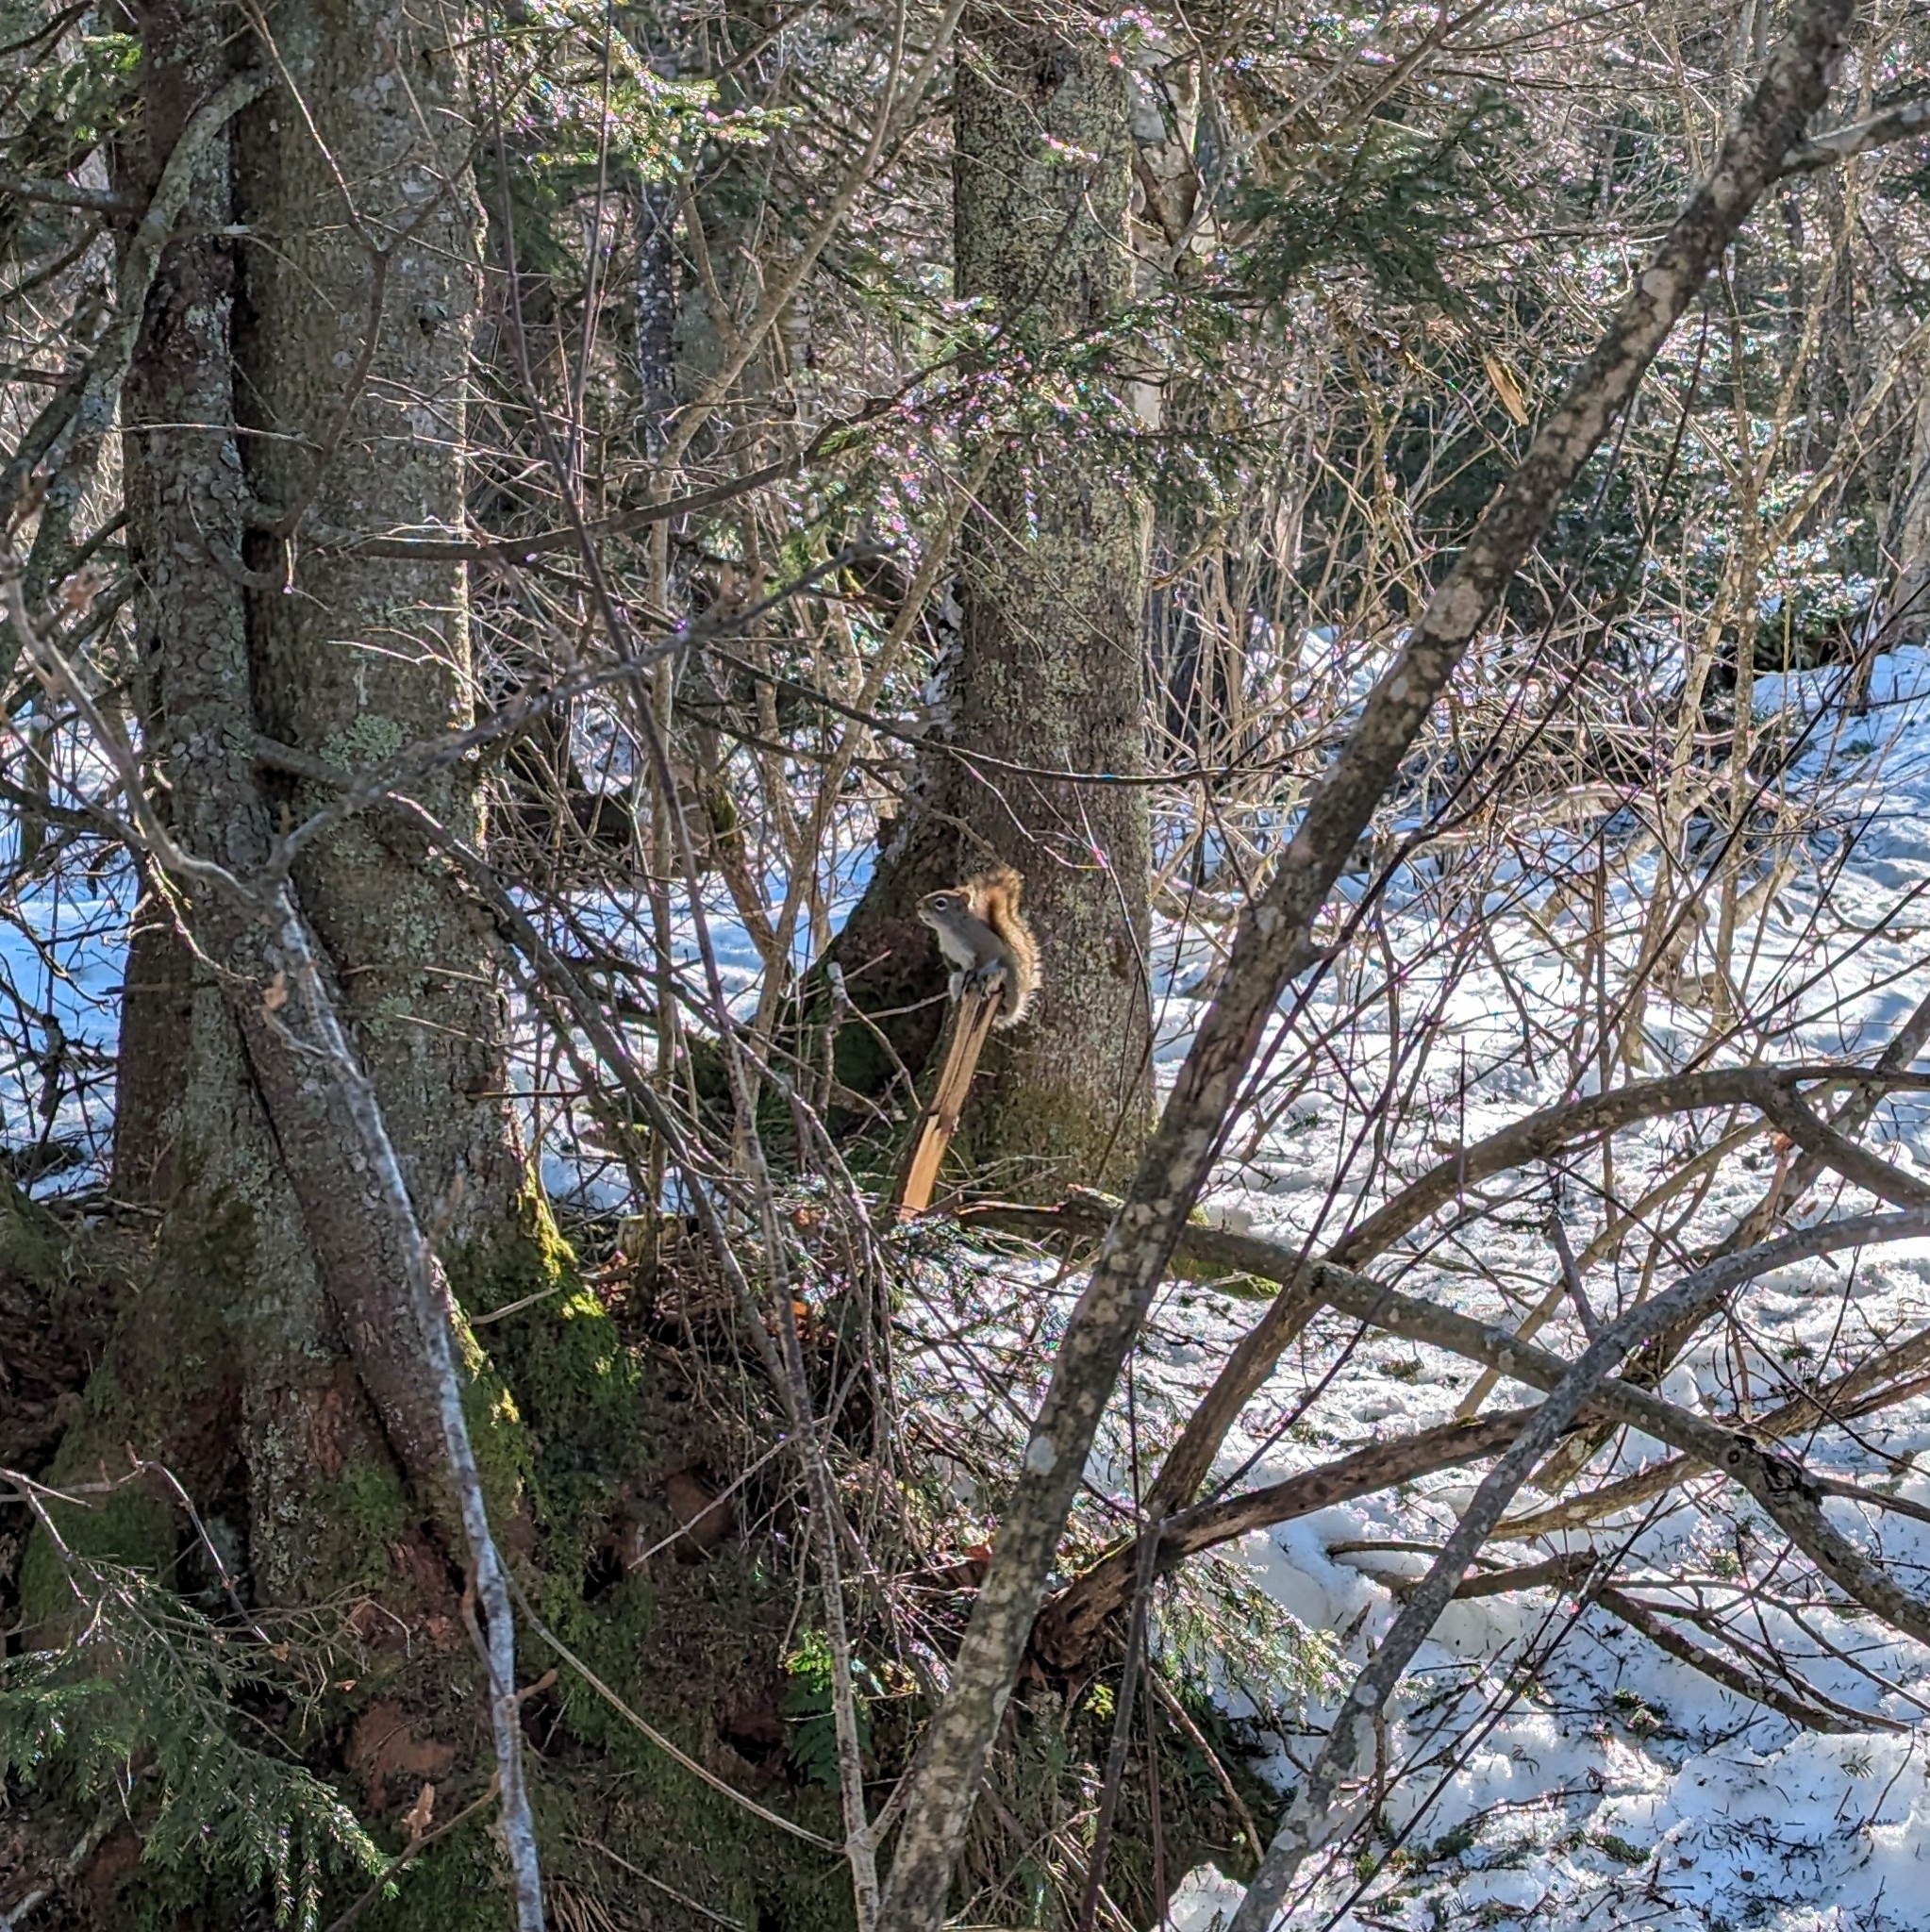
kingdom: Animalia
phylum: Chordata
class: Mammalia
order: Rodentia
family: Sciuridae
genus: Tamiasciurus
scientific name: Tamiasciurus hudsonicus
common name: Red squirrel
